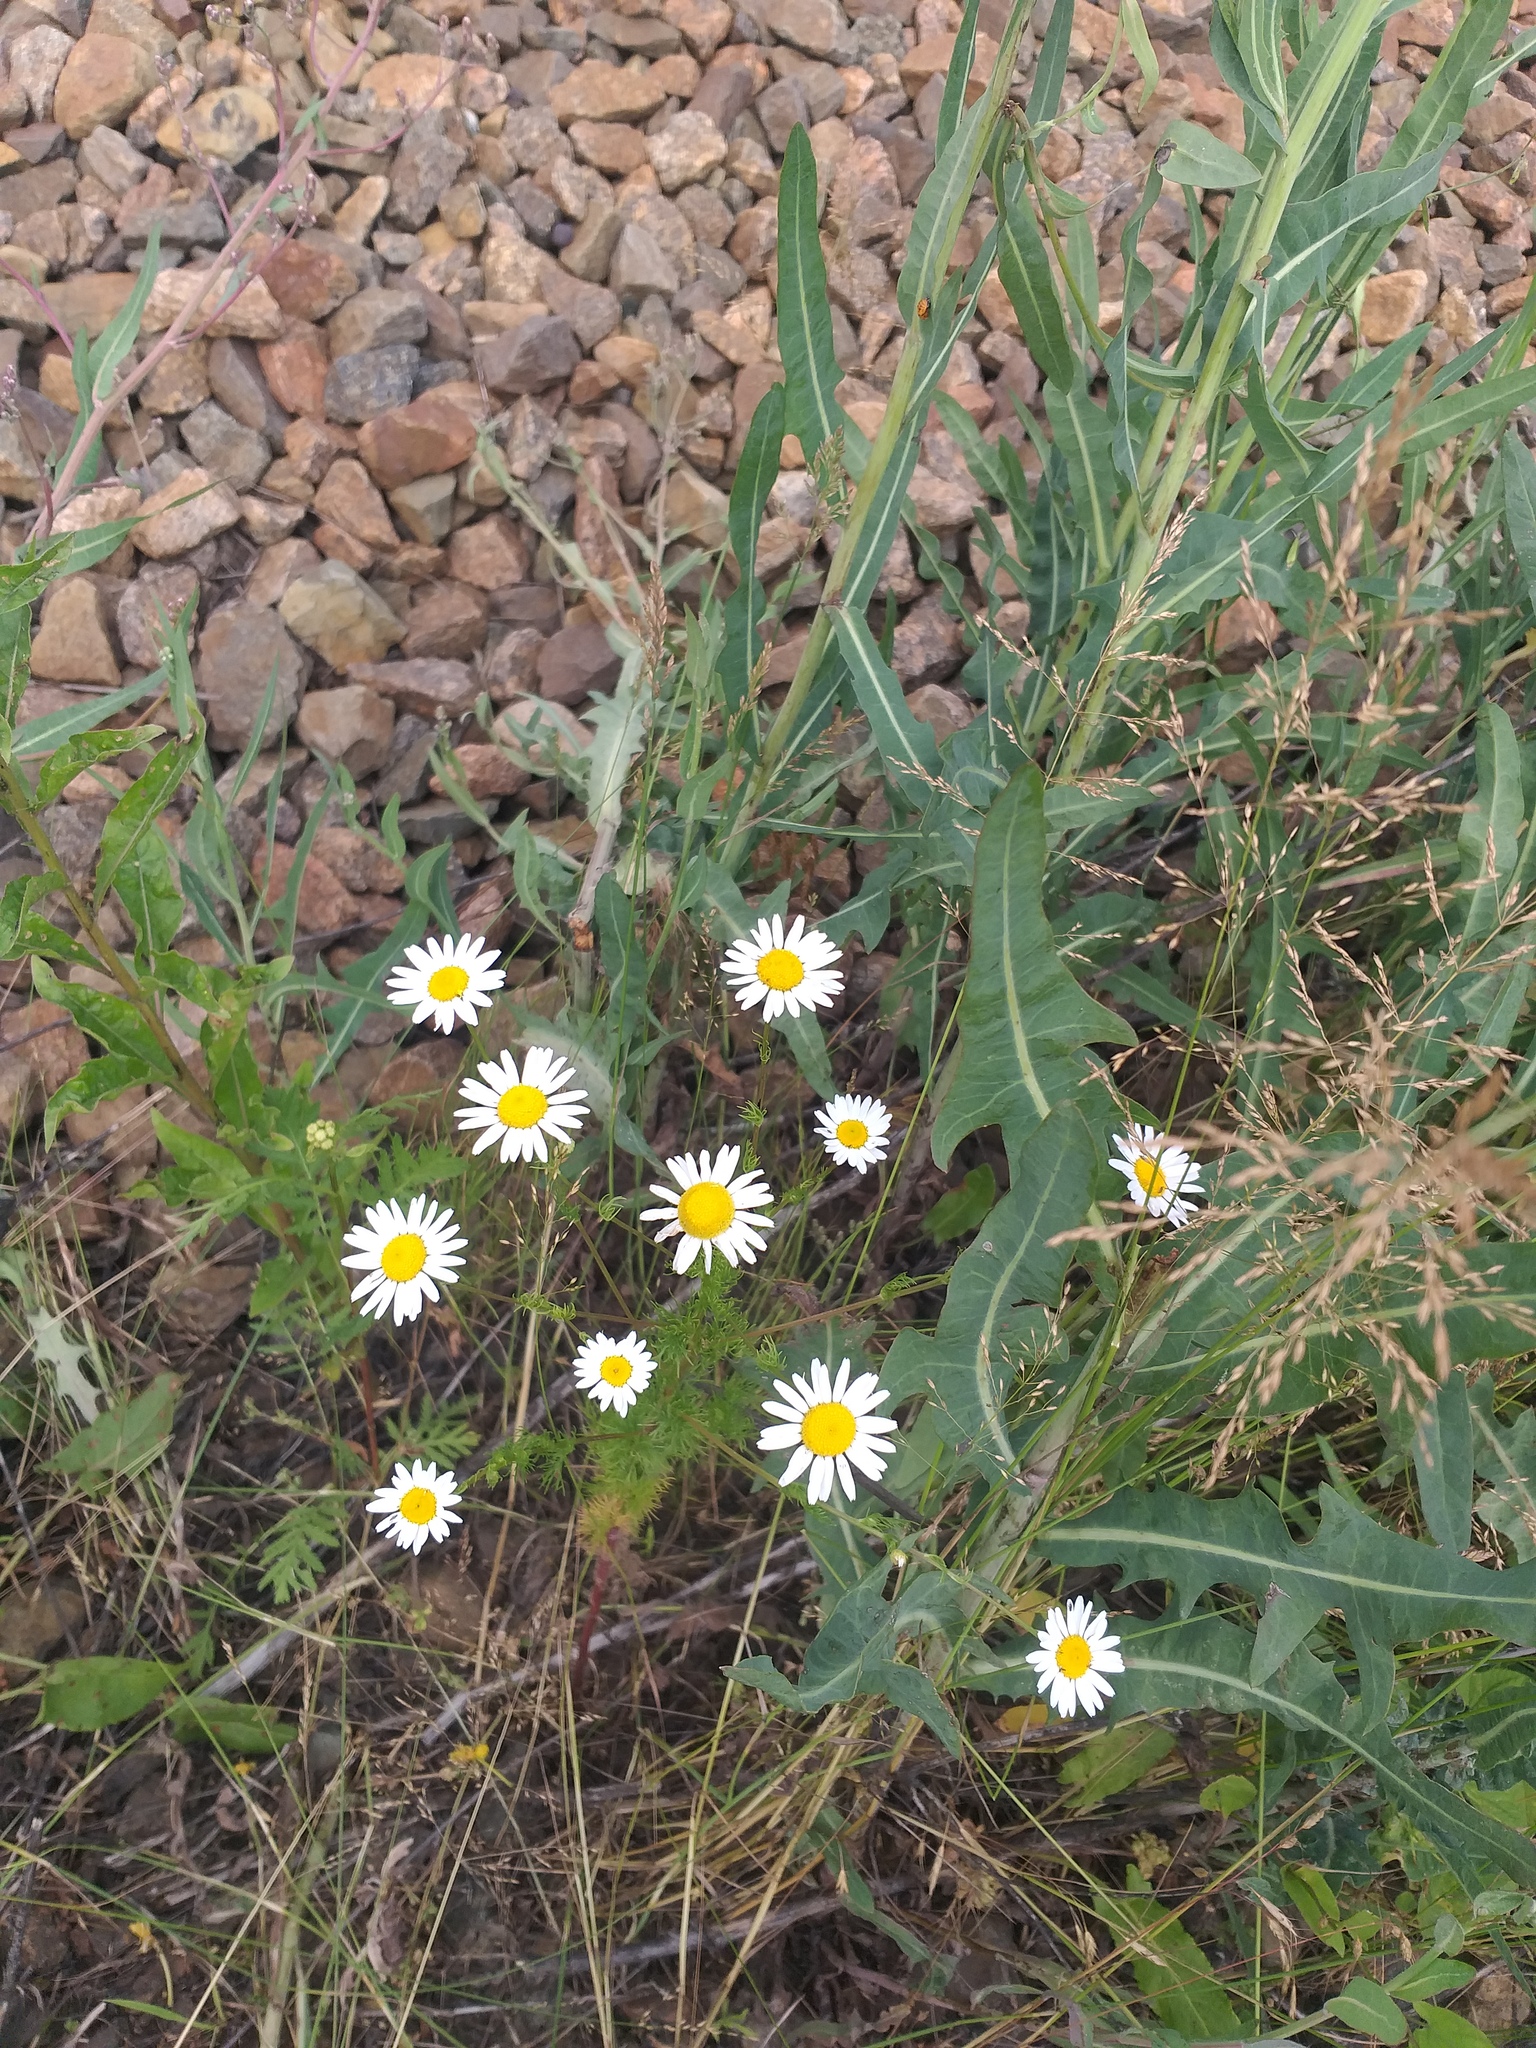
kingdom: Plantae
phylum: Tracheophyta
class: Magnoliopsida
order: Asterales
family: Asteraceae
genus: Tripleurospermum
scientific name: Tripleurospermum inodorum
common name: Scentless mayweed
